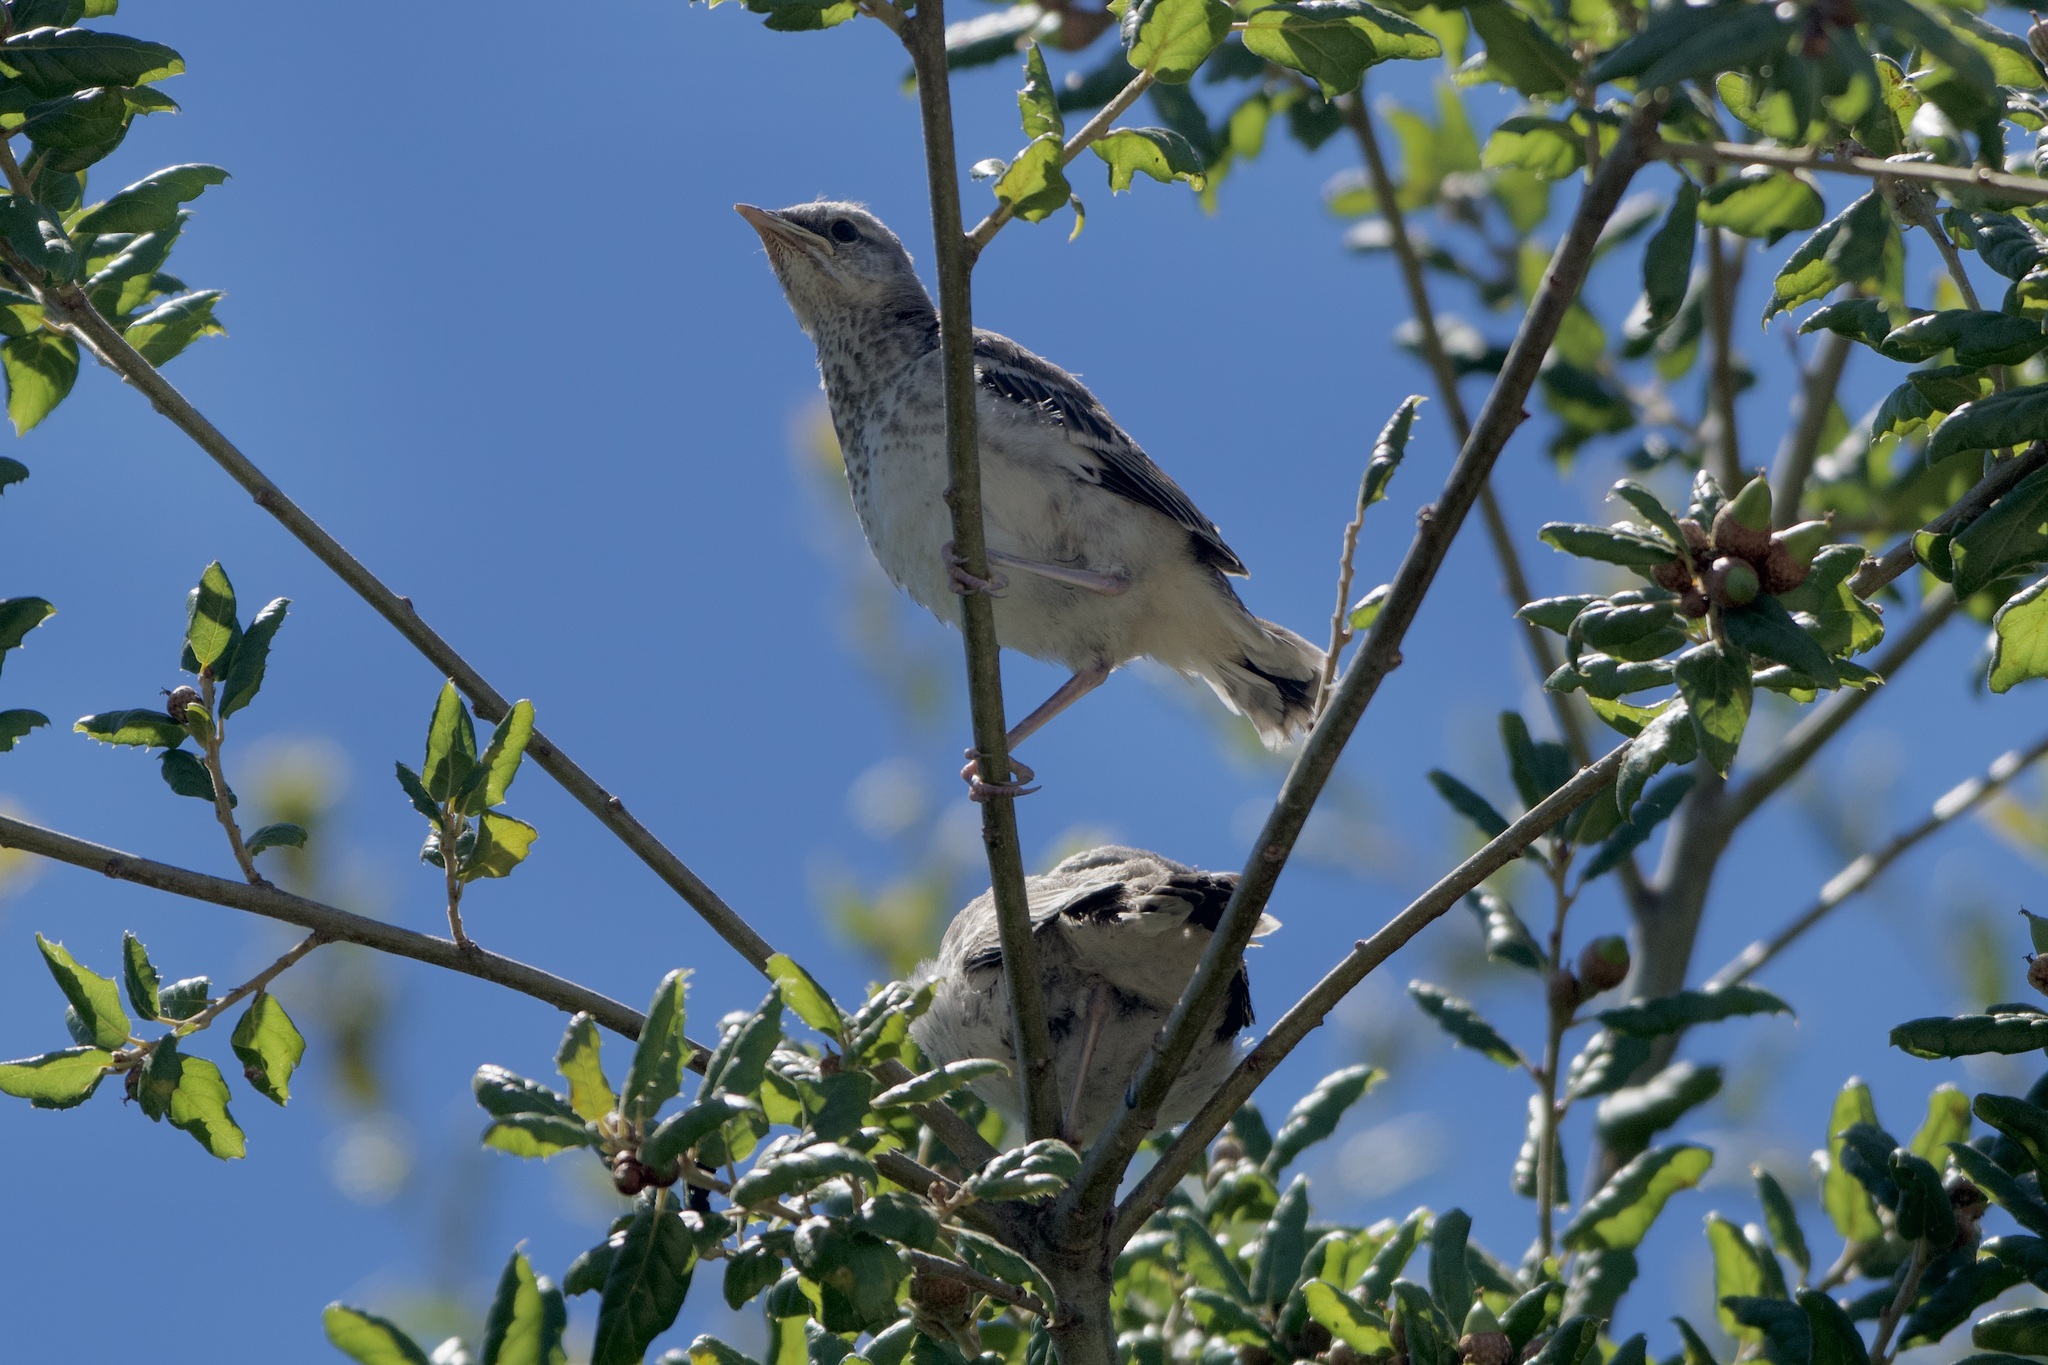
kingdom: Animalia
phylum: Chordata
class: Aves
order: Passeriformes
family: Mimidae
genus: Mimus
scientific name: Mimus polyglottos
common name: Northern mockingbird
